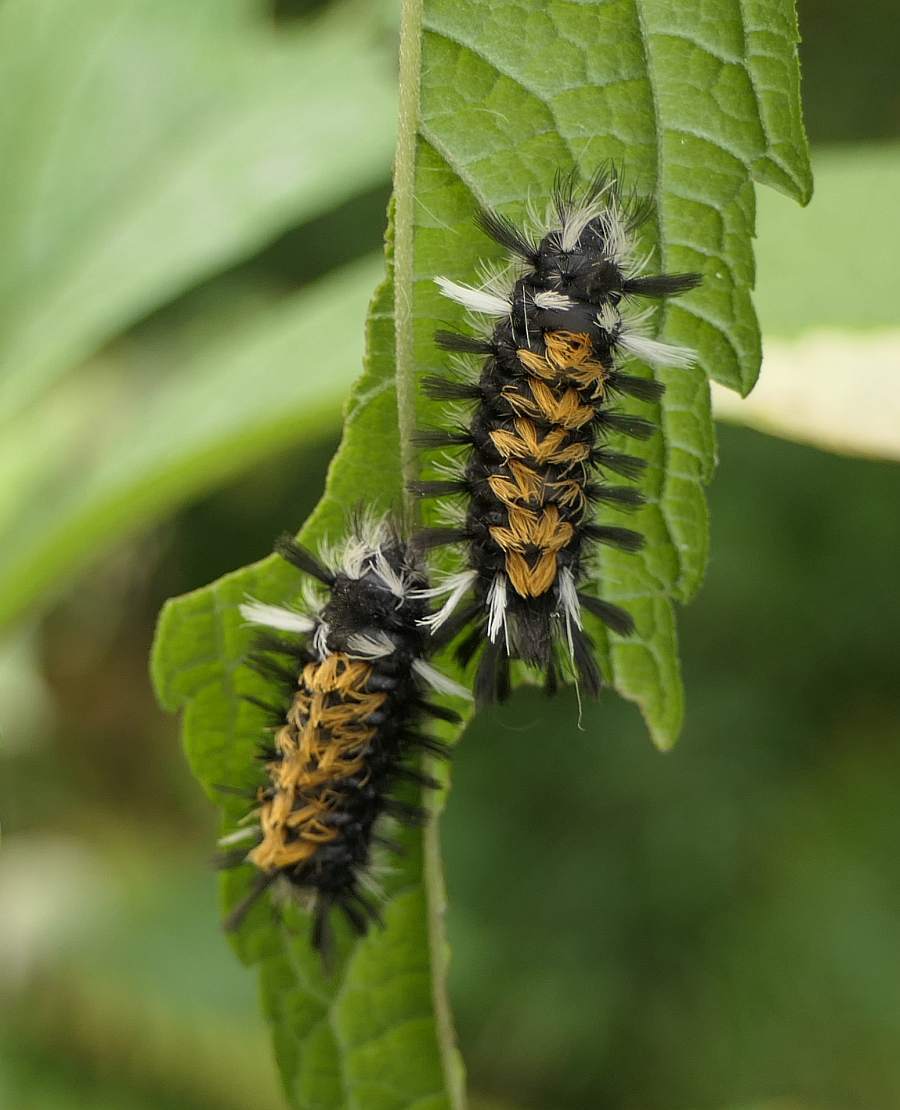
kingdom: Animalia
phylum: Arthropoda
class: Insecta
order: Lepidoptera
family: Erebidae
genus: Euchaetes
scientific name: Euchaetes egle
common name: Milkweed tussock moth
